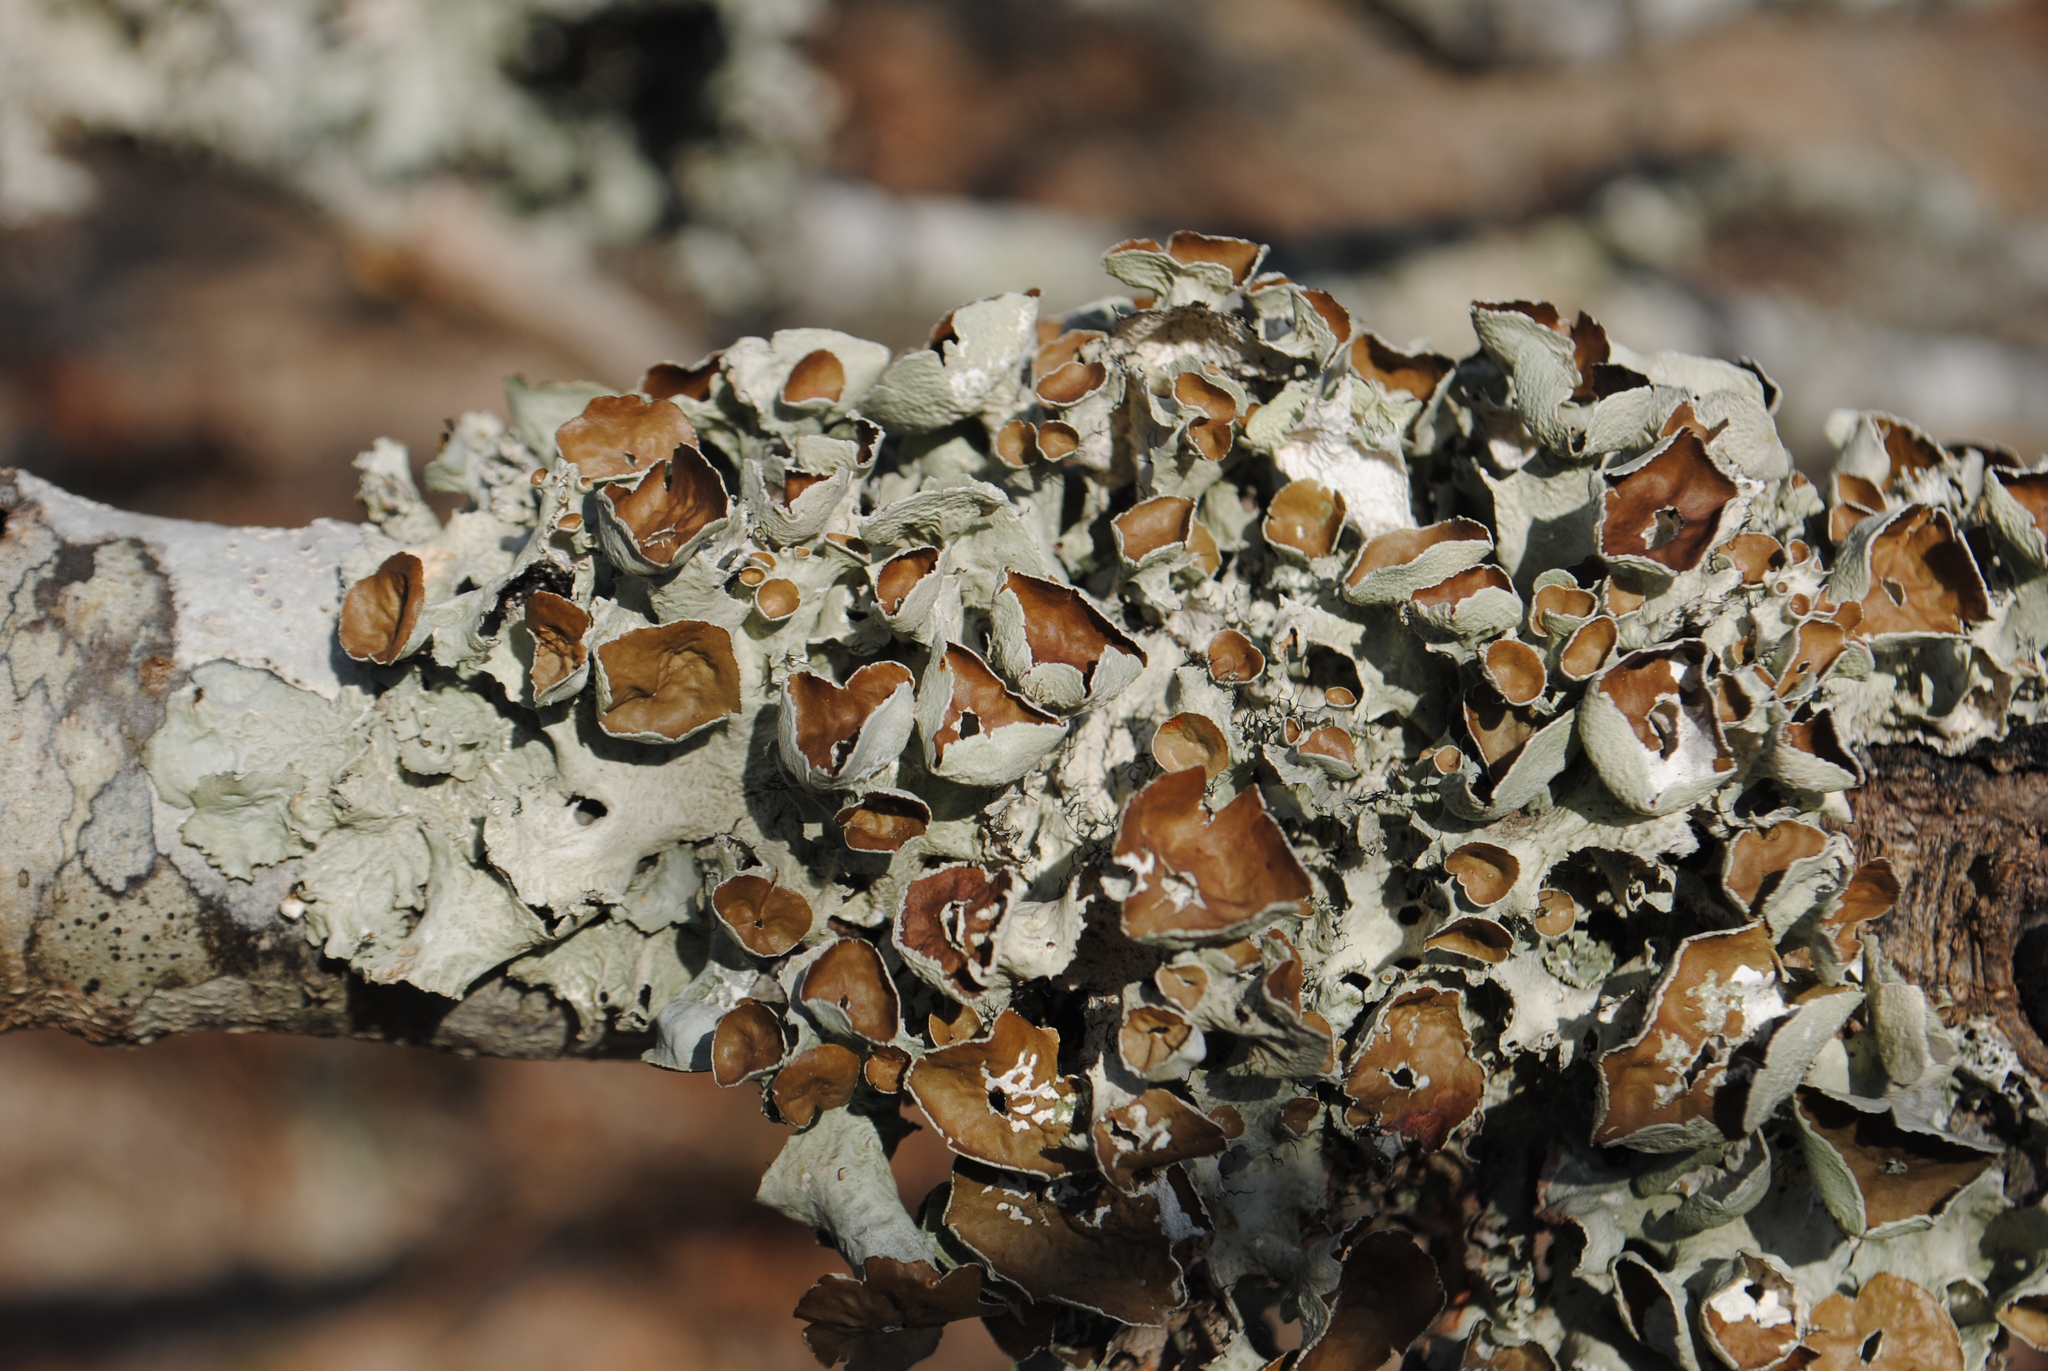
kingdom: Fungi
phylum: Ascomycota
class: Lecanoromycetes
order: Lecanorales
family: Parmeliaceae
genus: Parmotrema
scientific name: Parmotrema perforatum
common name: Perforated ruffle lichen
